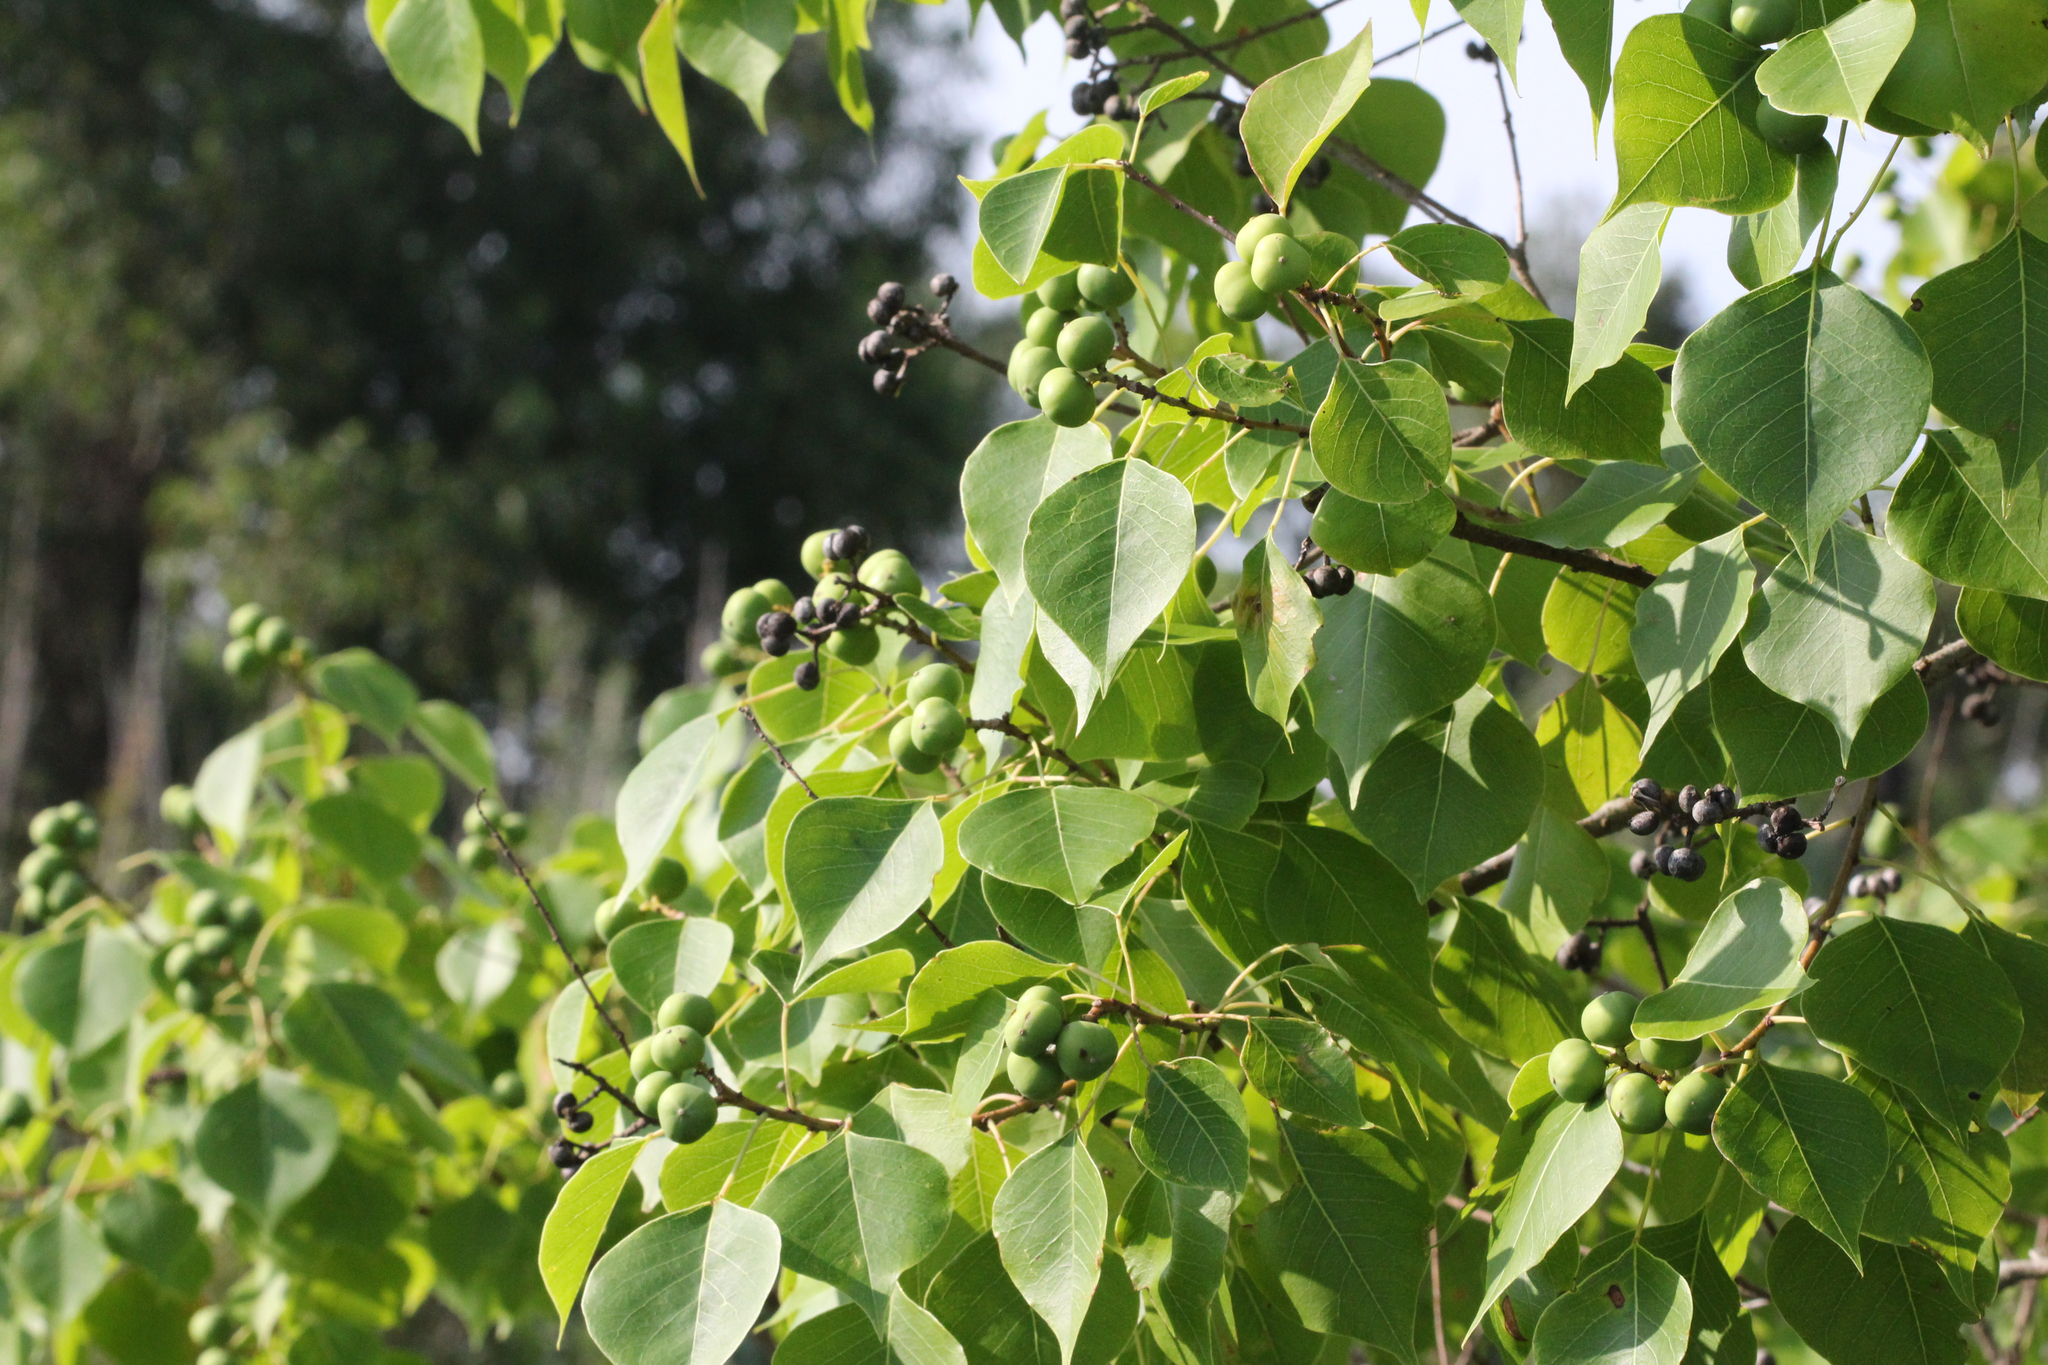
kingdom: Plantae
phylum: Tracheophyta
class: Magnoliopsida
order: Malpighiales
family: Euphorbiaceae
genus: Triadica
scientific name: Triadica sebifera
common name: Chinese tallow
